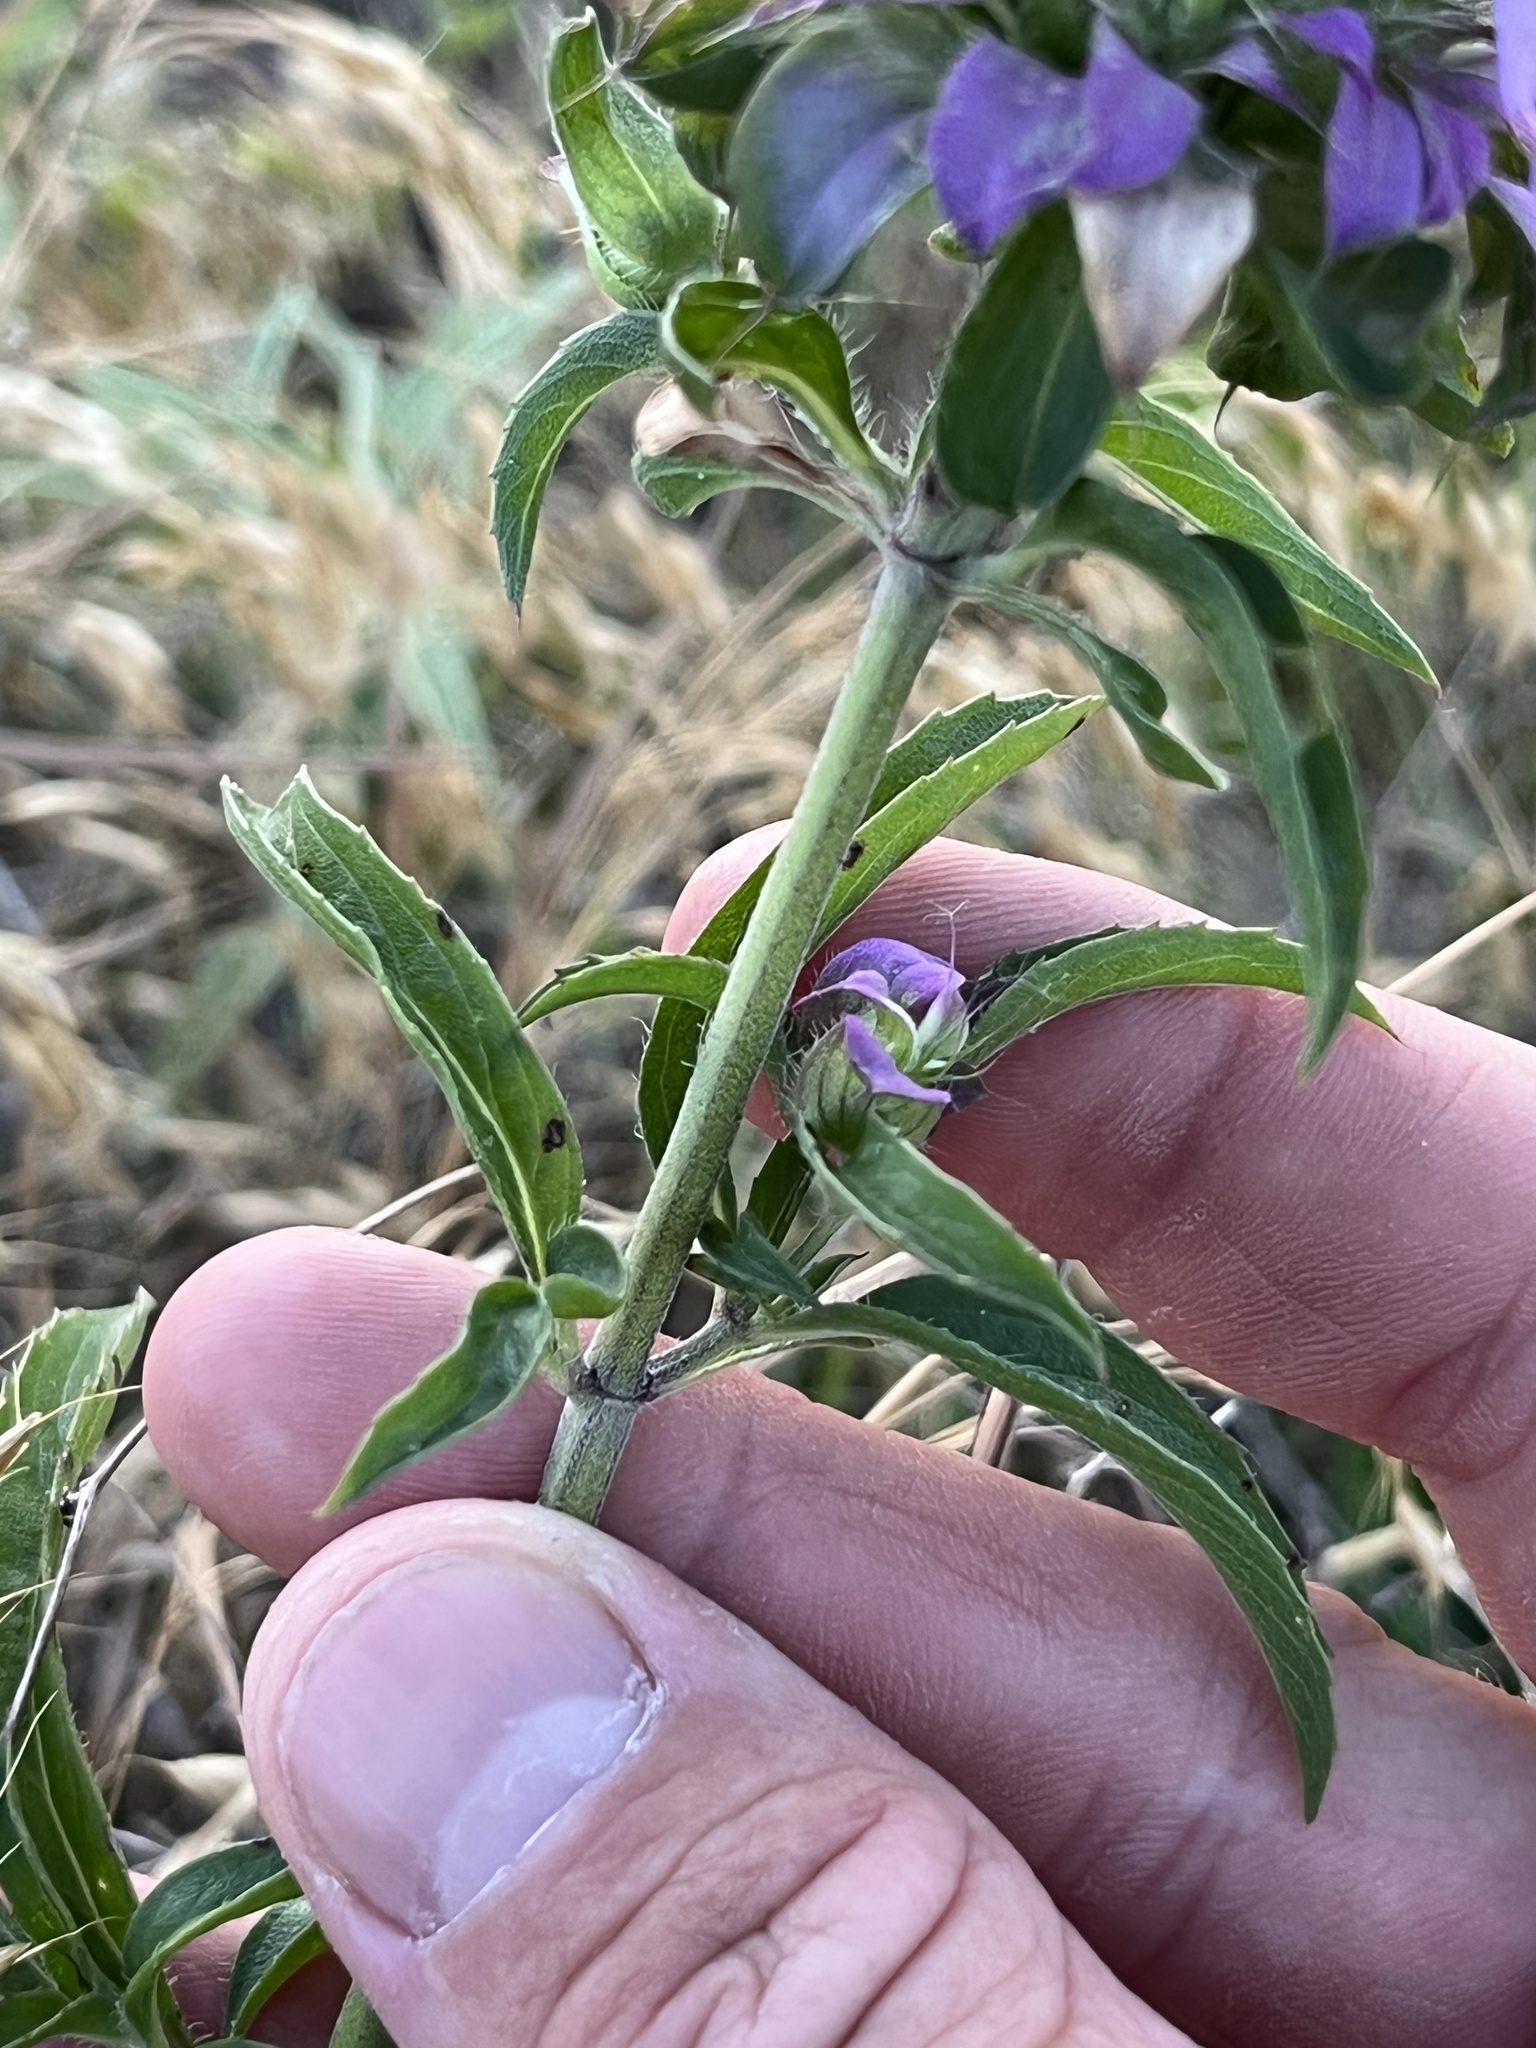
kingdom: Plantae
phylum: Tracheophyta
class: Magnoliopsida
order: Lamiales
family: Lamiaceae
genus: Monarda
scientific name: Monarda citriodora
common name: Lemon beebalm
